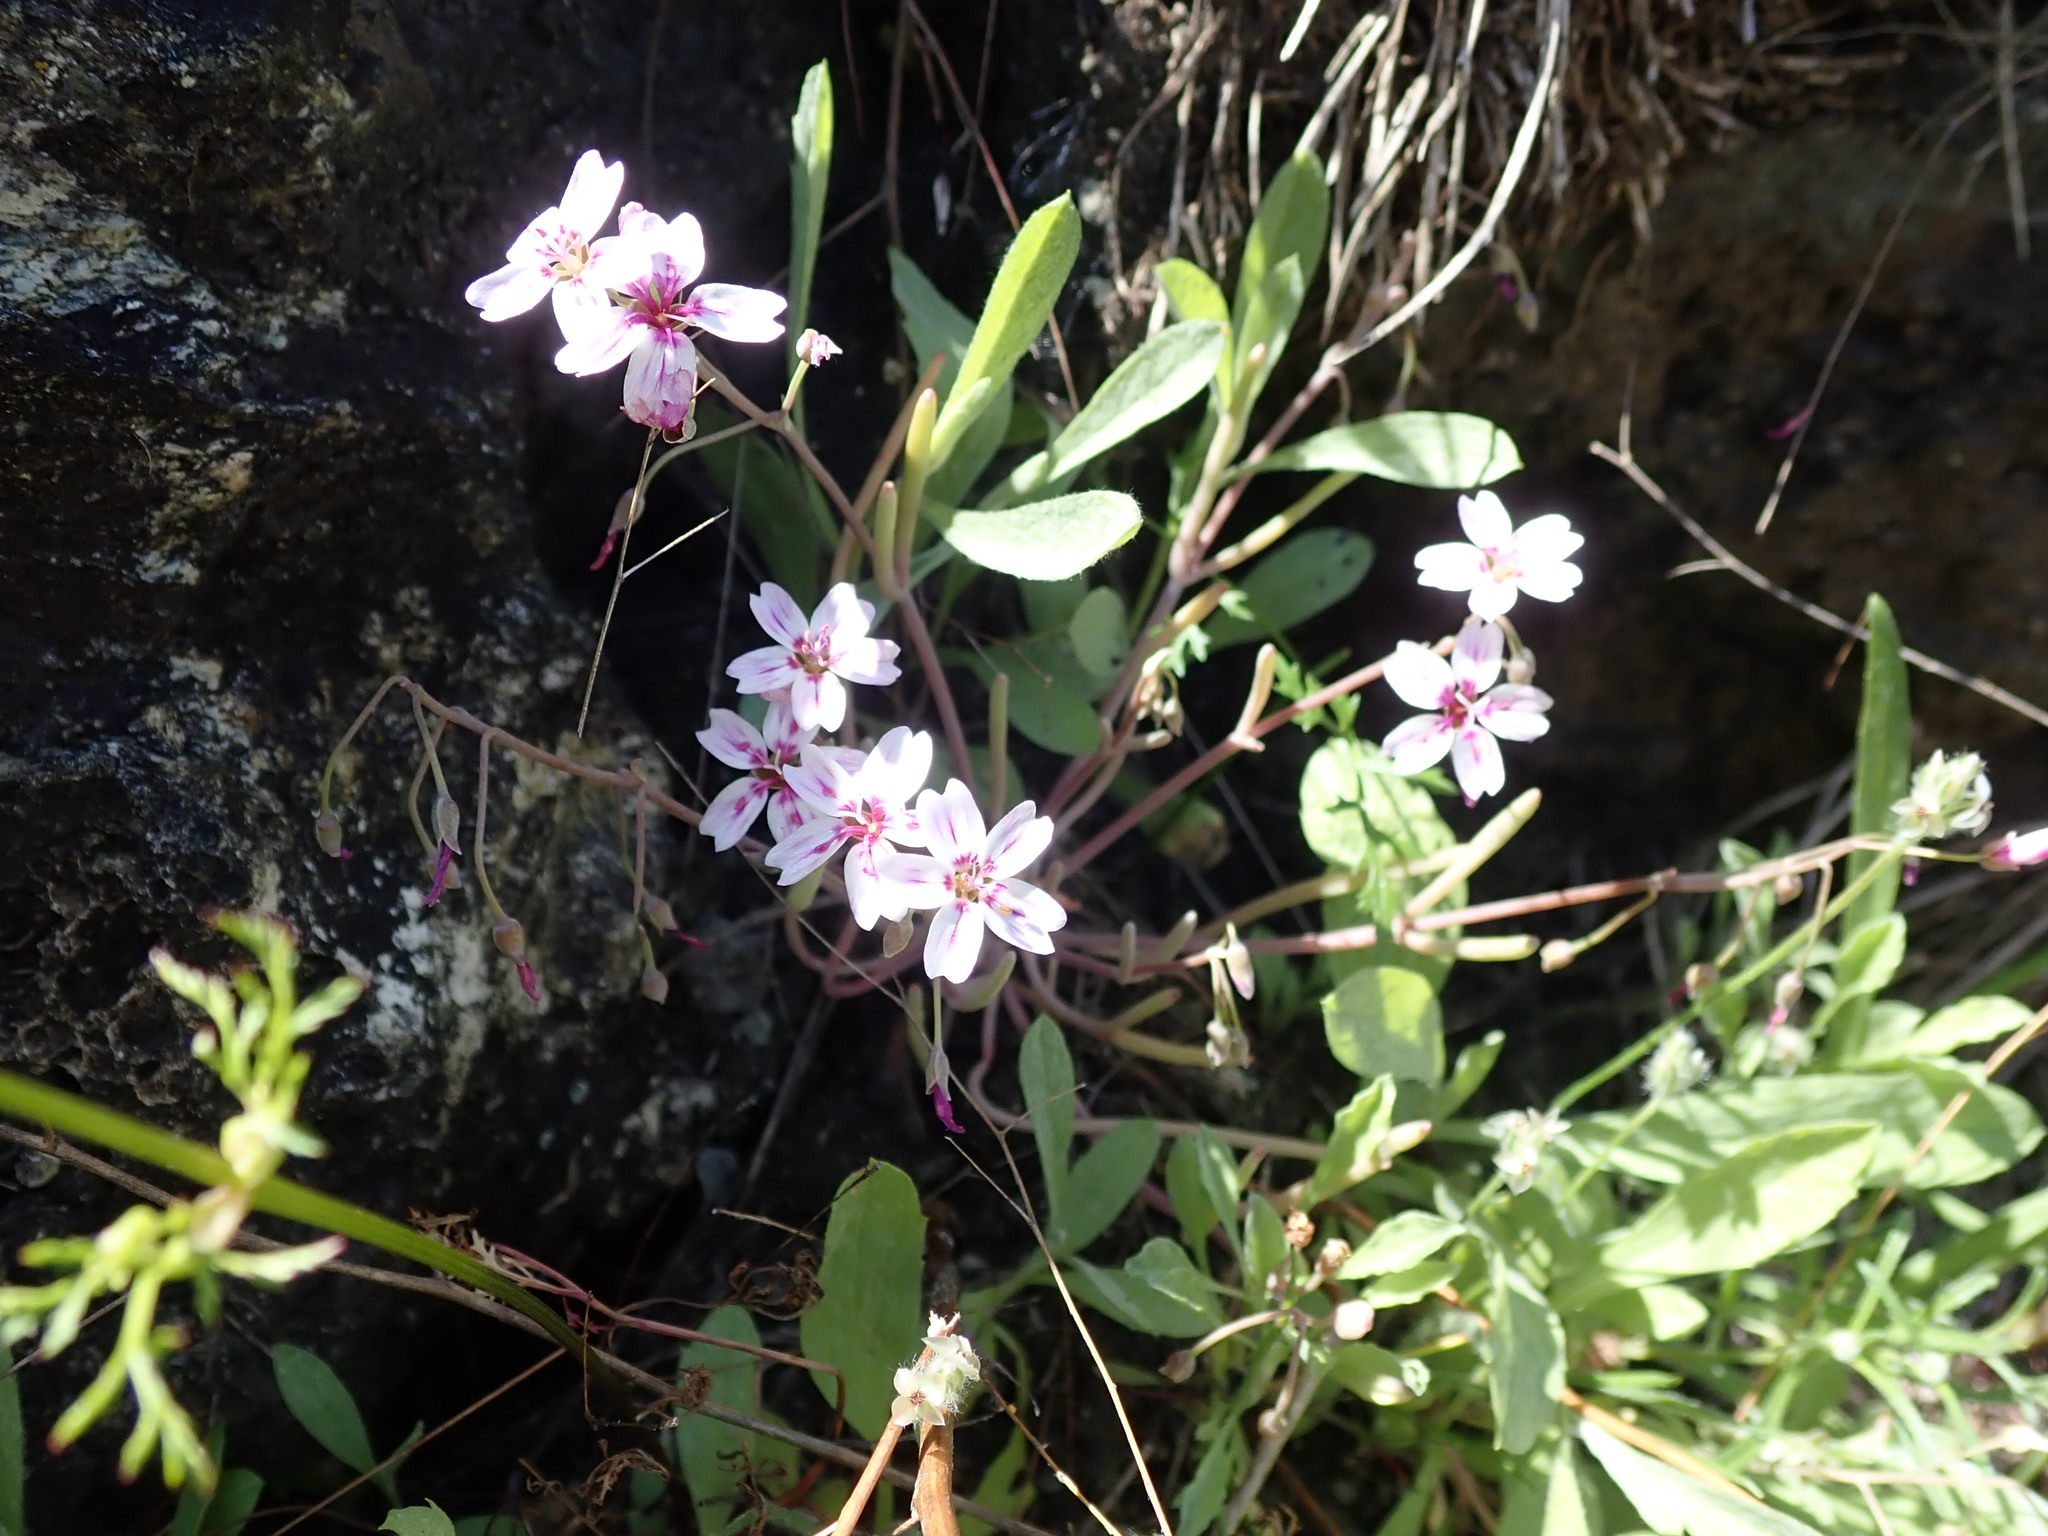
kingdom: Plantae
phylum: Tracheophyta
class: Magnoliopsida
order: Caryophyllales
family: Montiaceae
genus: Claytonia
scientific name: Claytonia gypsophiloides
